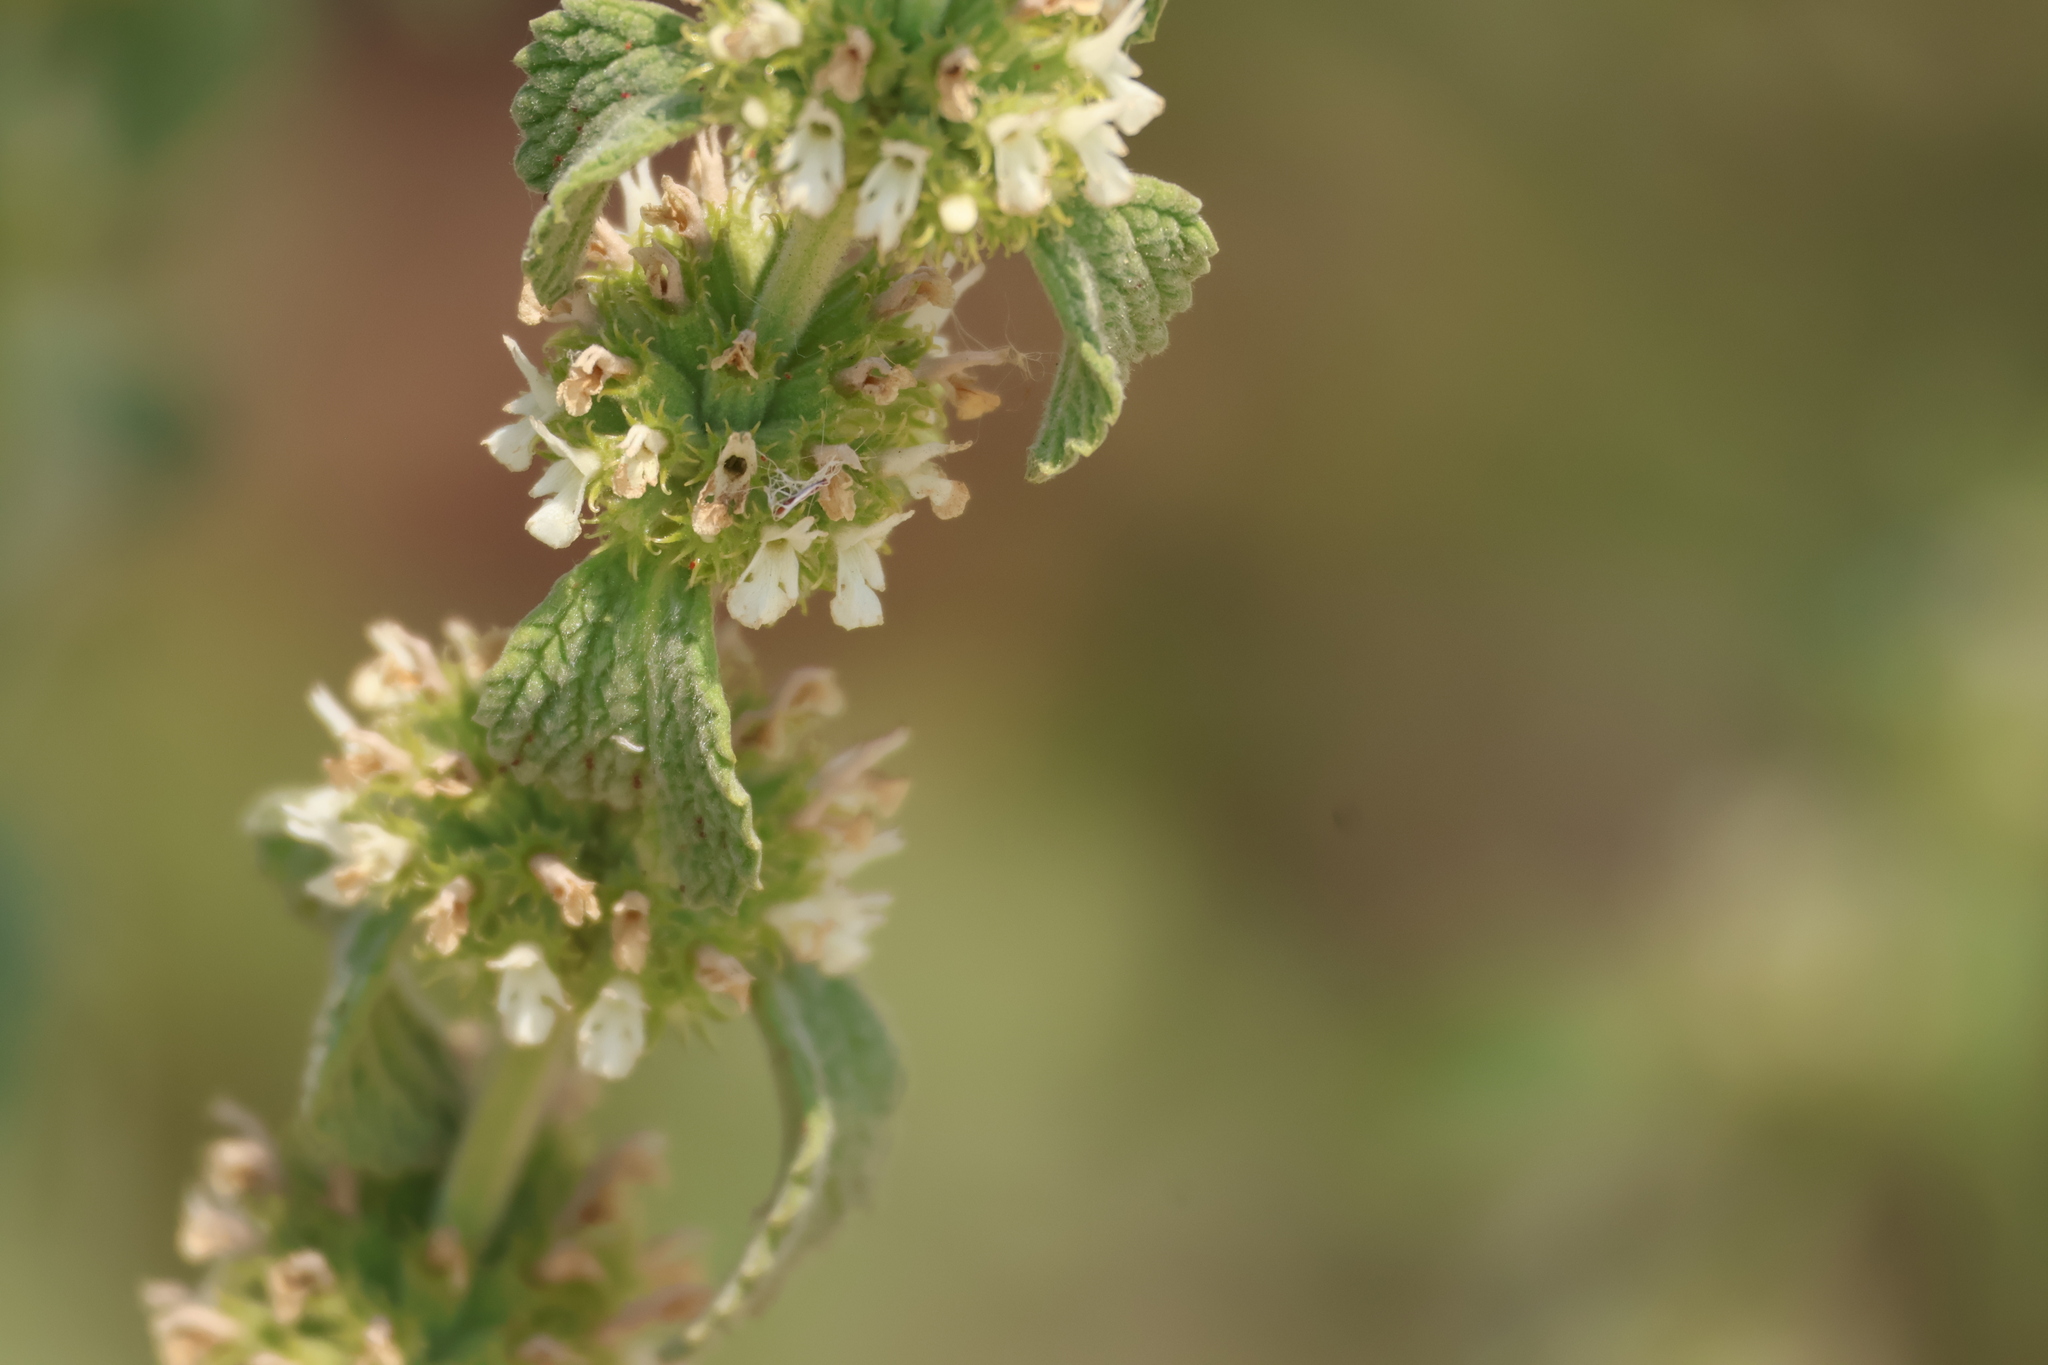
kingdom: Plantae
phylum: Tracheophyta
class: Magnoliopsida
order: Lamiales
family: Lamiaceae
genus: Marrubium
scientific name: Marrubium vulgare
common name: Horehound
